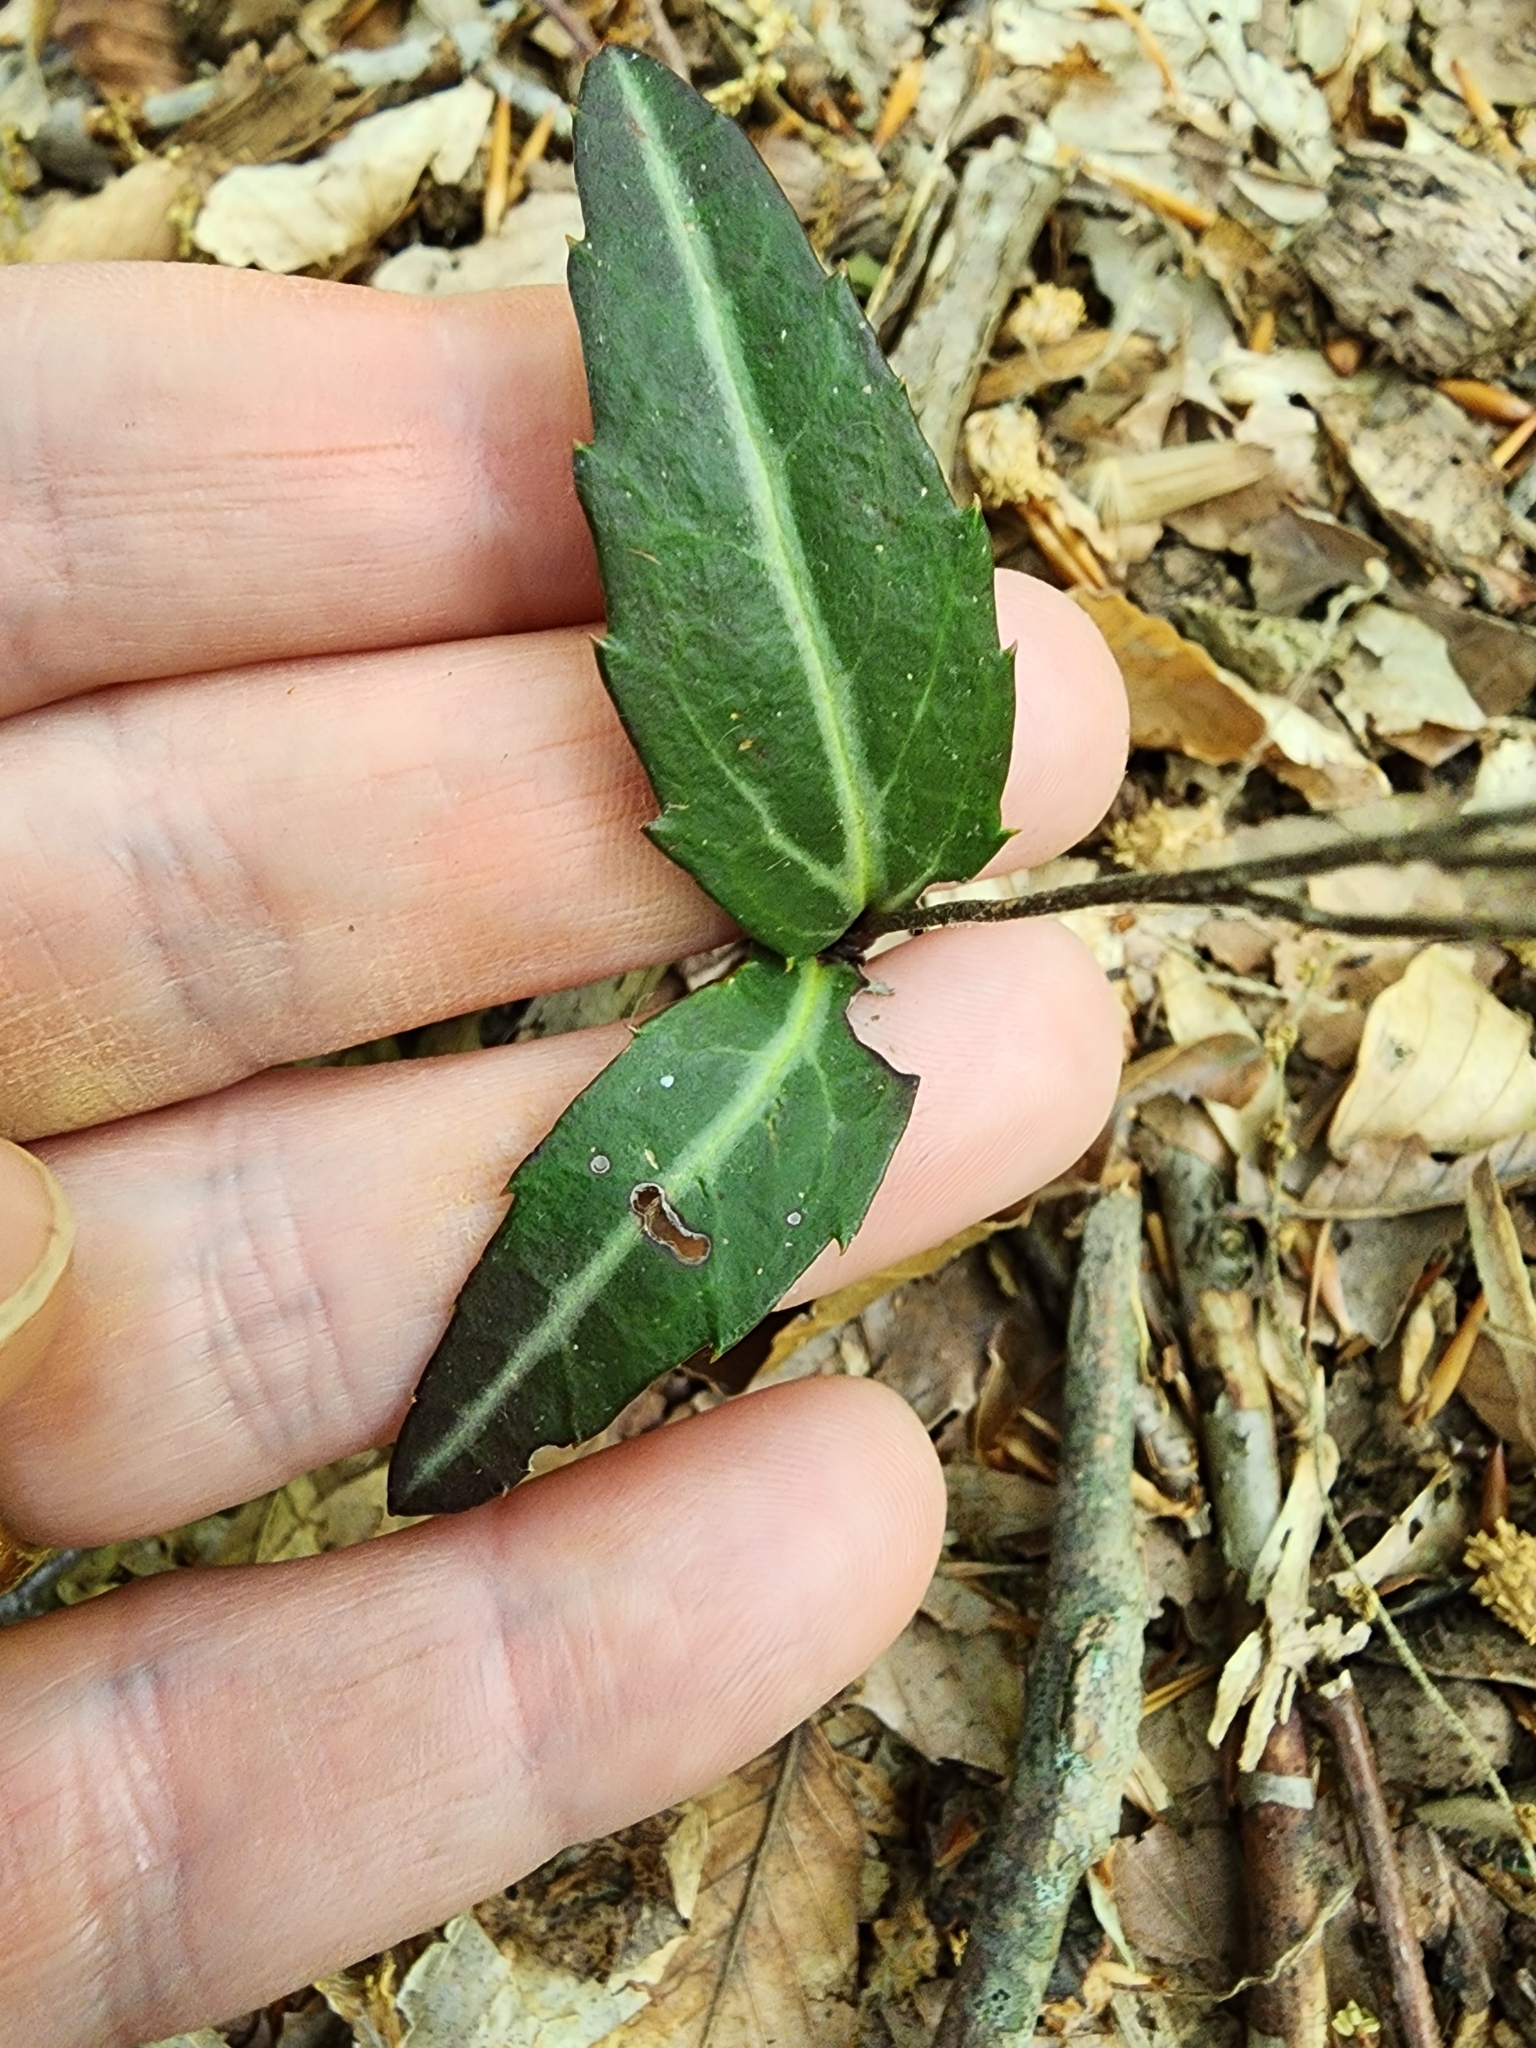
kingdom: Plantae
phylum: Tracheophyta
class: Magnoliopsida
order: Ericales
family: Ericaceae
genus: Chimaphila
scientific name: Chimaphila maculata
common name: Spotted pipsissewa
